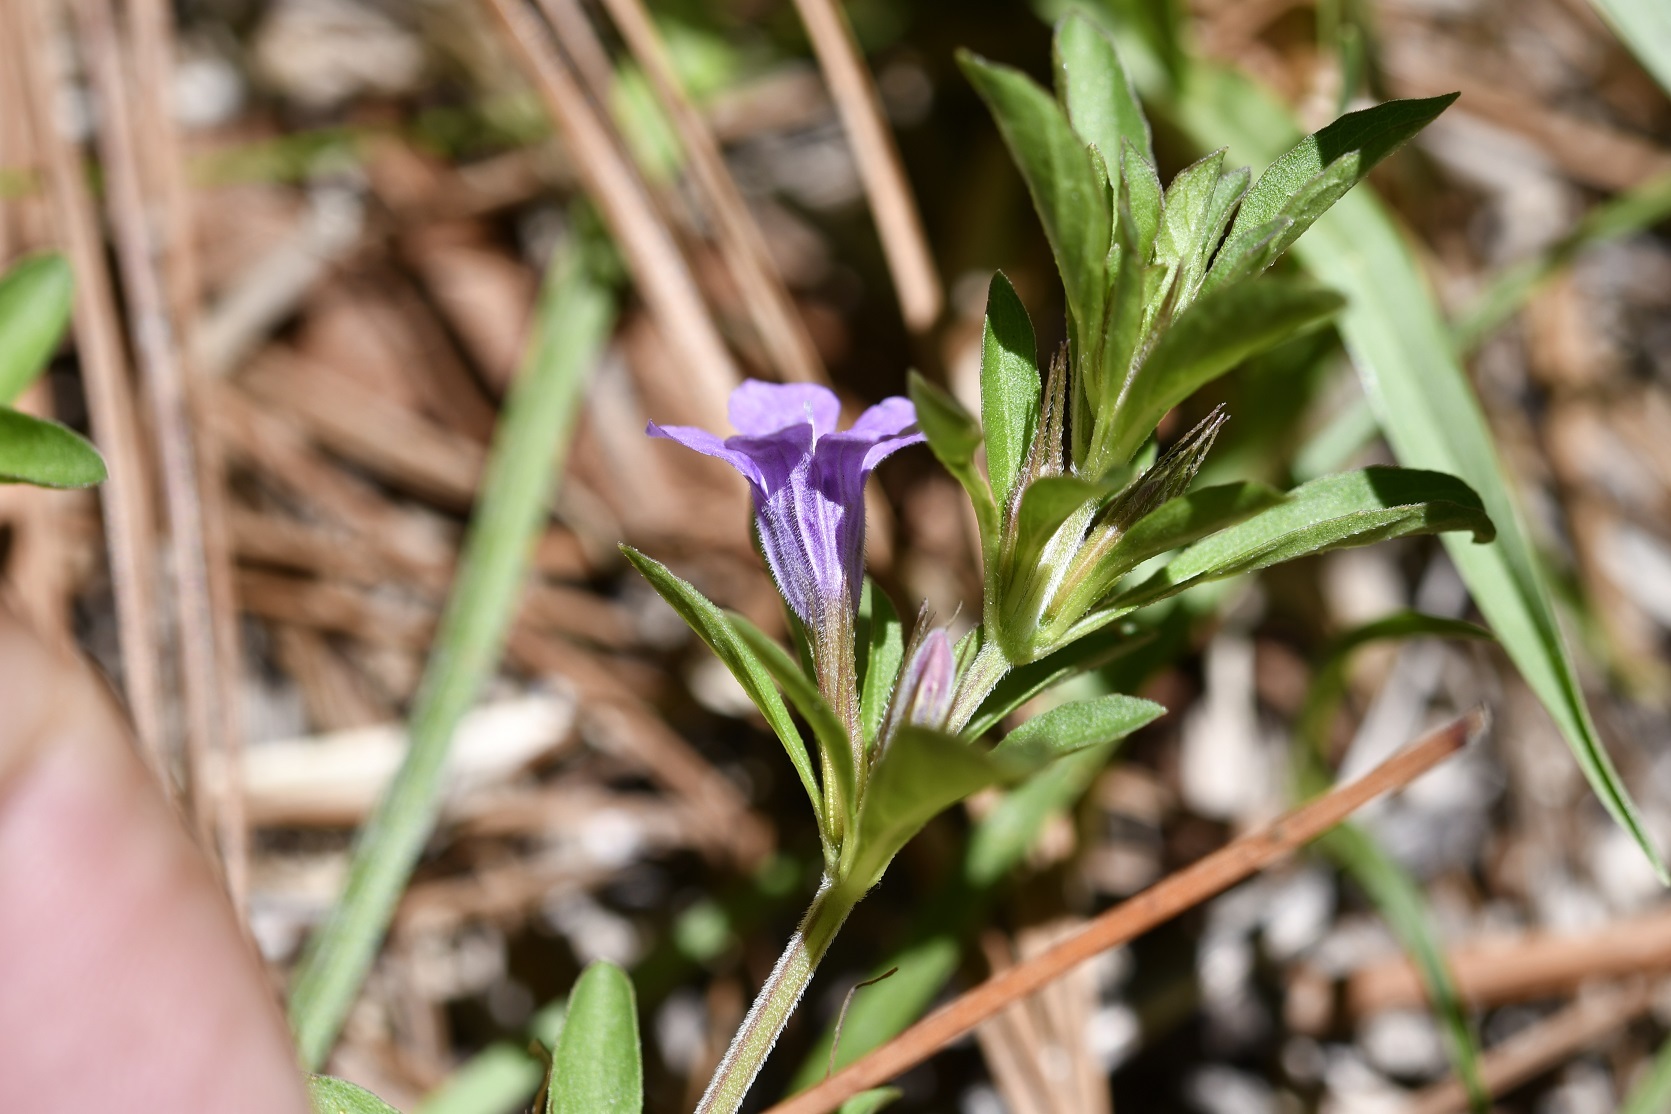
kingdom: Plantae
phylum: Tracheophyta
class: Magnoliopsida
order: Lamiales
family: Acanthaceae
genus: Dyschoriste
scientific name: Dyschoriste capitata
